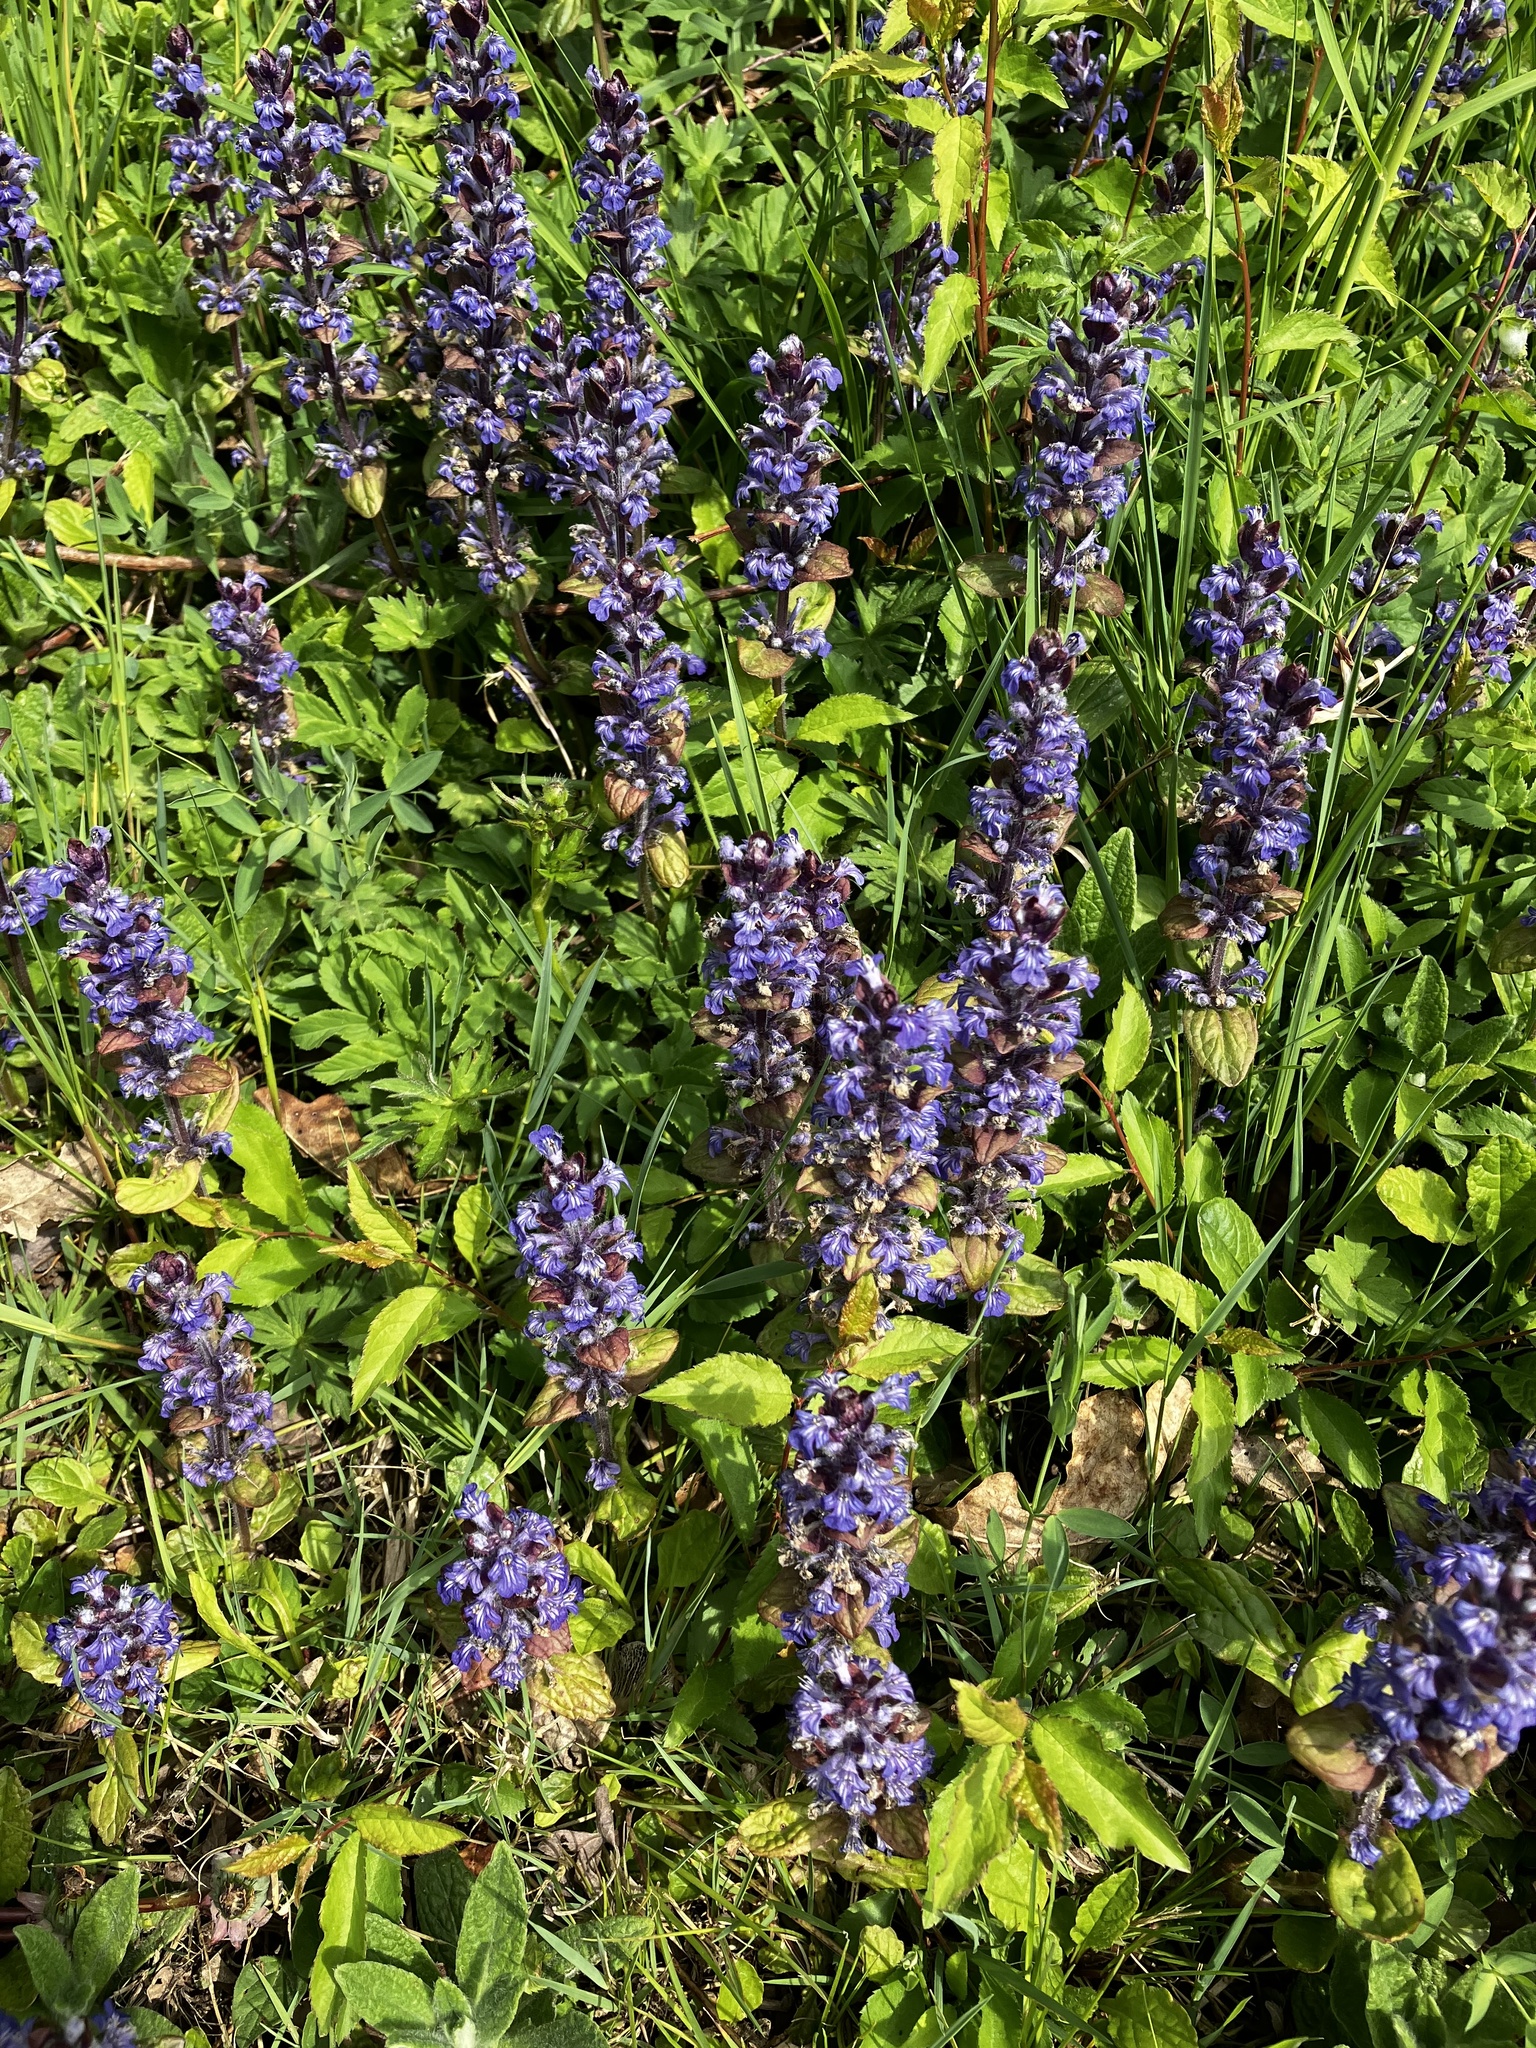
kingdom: Plantae
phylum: Tracheophyta
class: Magnoliopsida
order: Lamiales
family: Lamiaceae
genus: Ajuga
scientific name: Ajuga reptans
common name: Bugle
